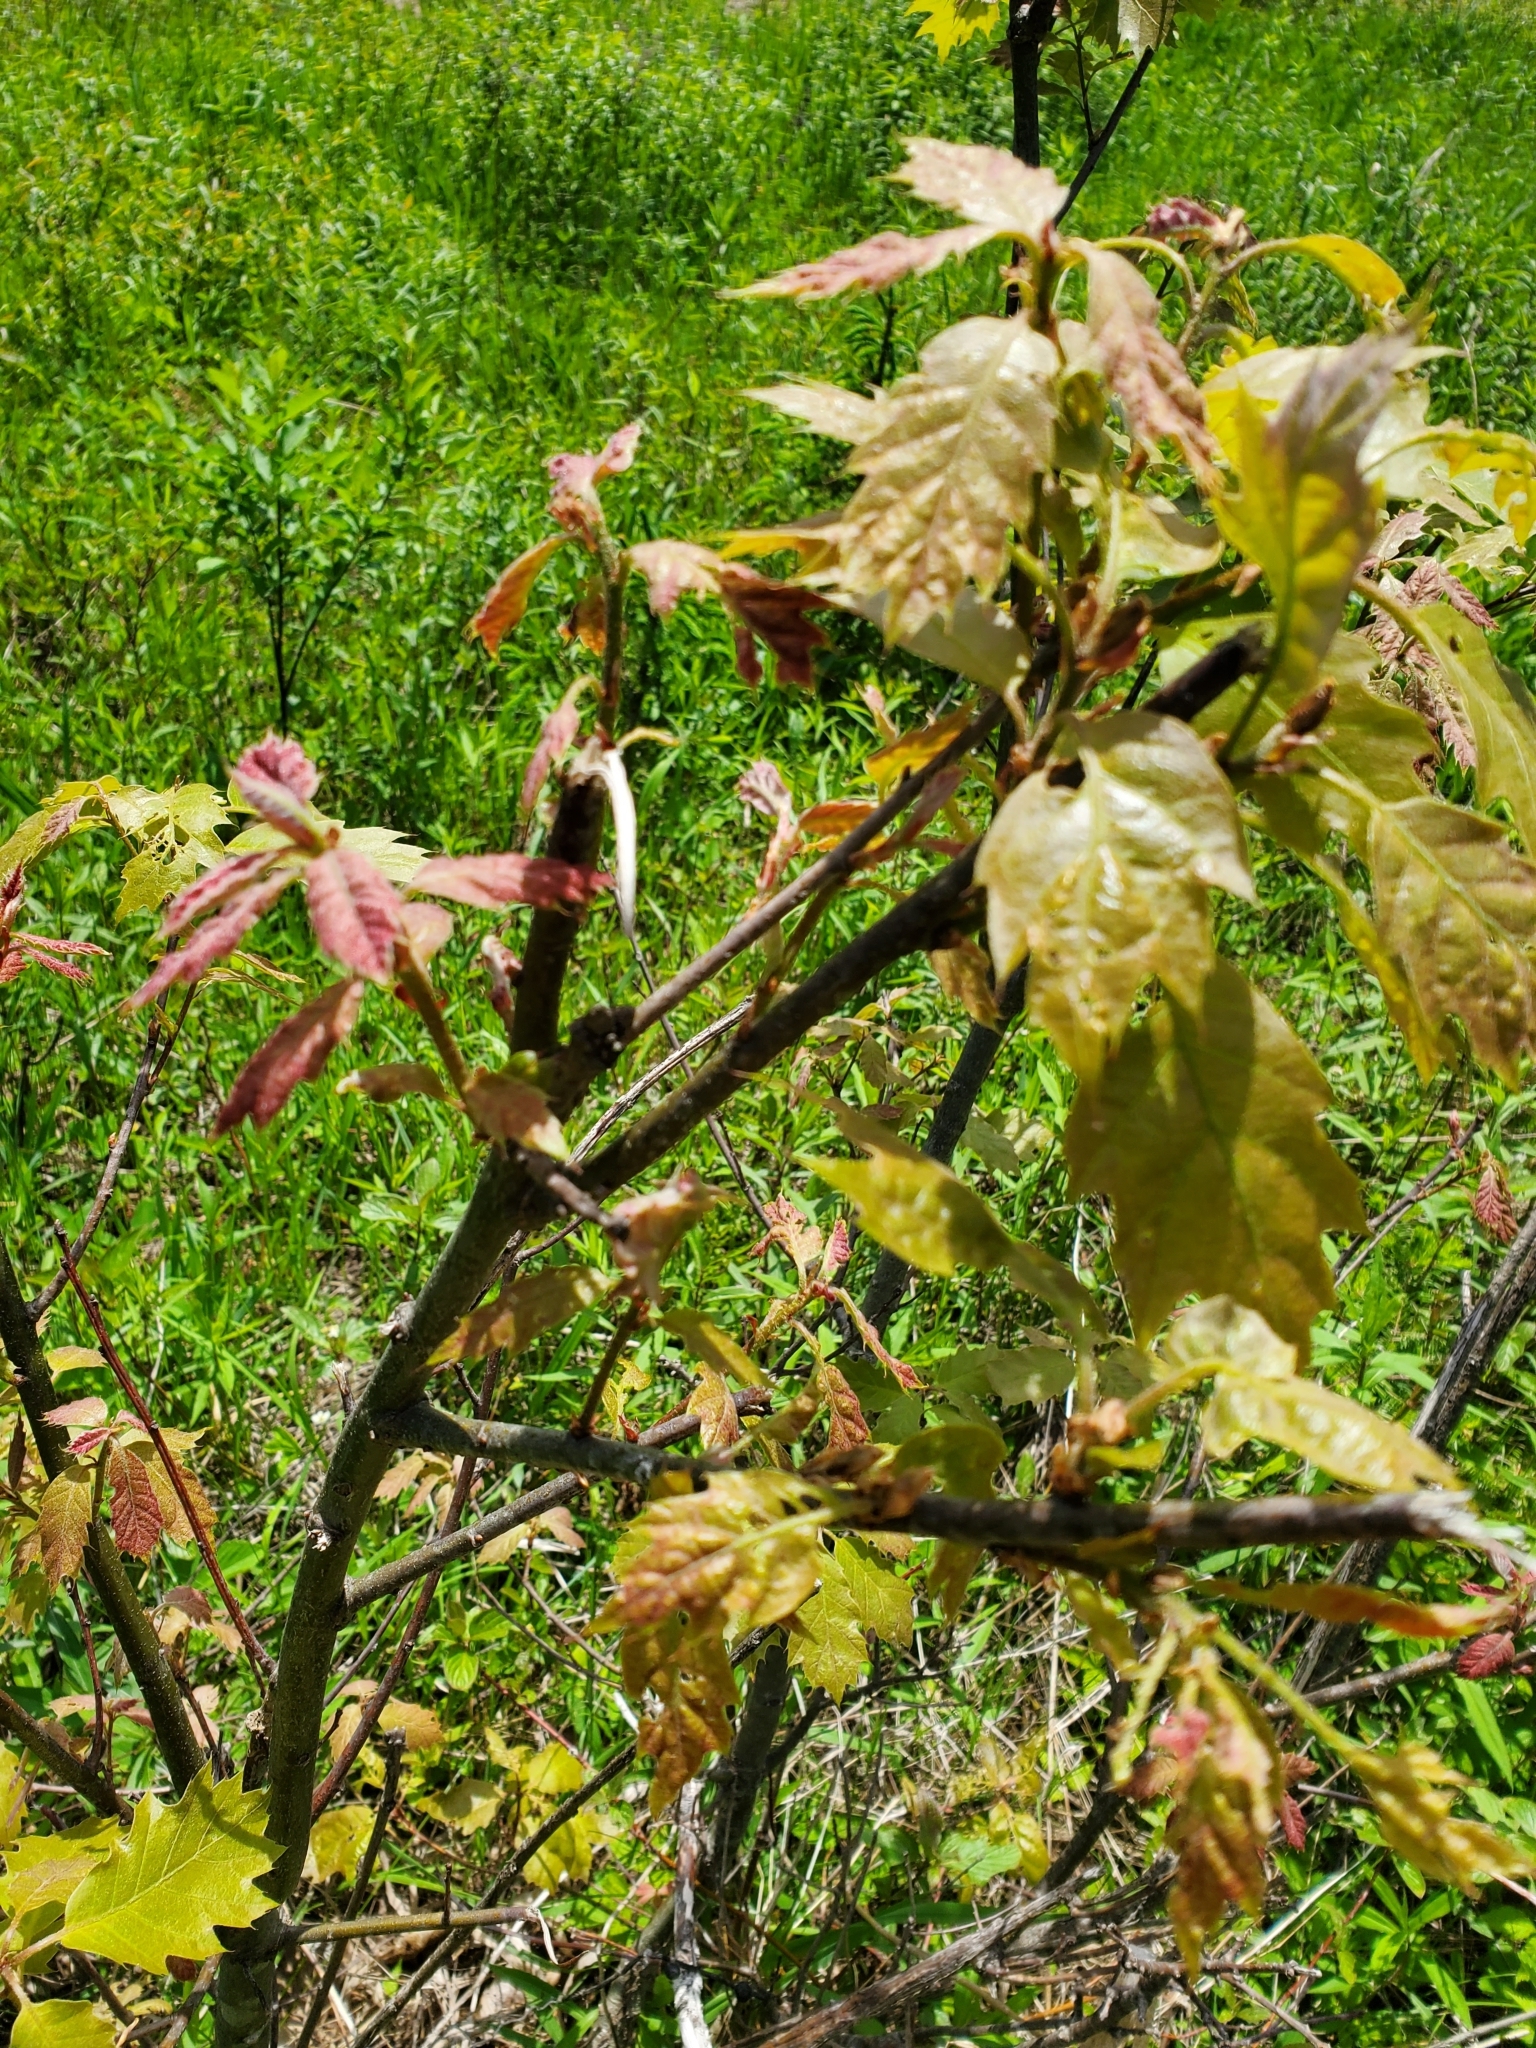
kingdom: Plantae
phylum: Tracheophyta
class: Magnoliopsida
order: Fagales
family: Fagaceae
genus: Quercus
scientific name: Quercus rubra
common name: Red oak
